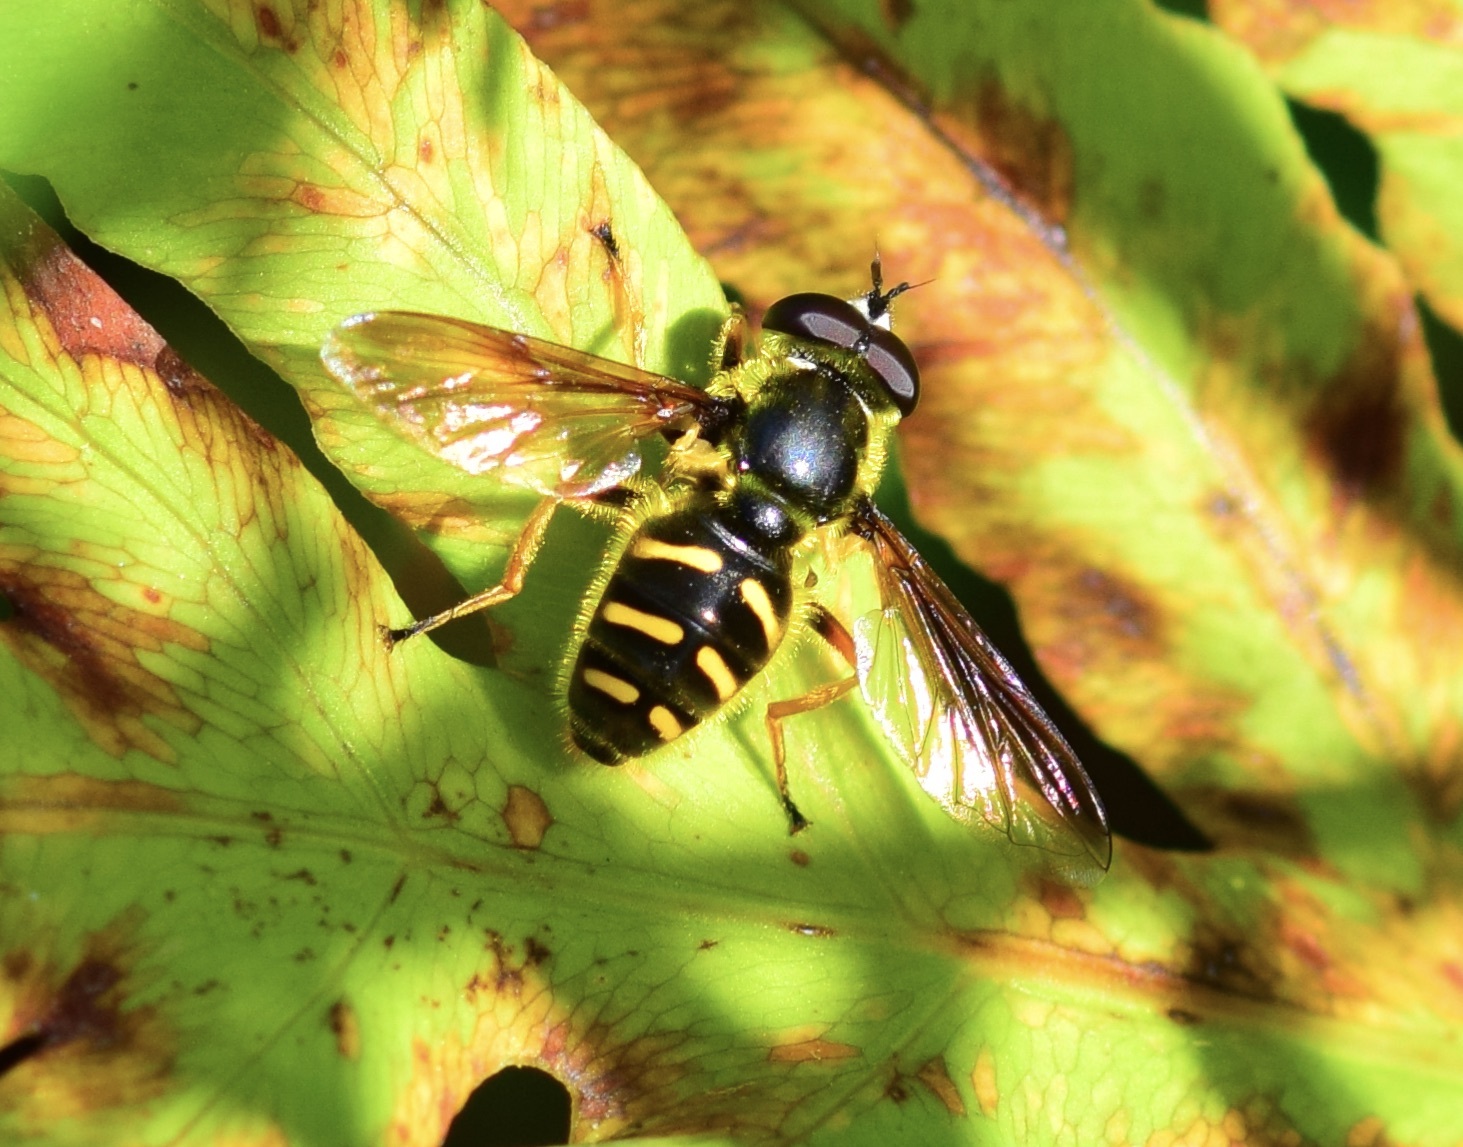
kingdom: Animalia
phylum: Arthropoda
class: Insecta
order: Diptera
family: Syrphidae
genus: Sericomyia
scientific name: Sericomyia chrysotoxoides
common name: Oblique-banded pond fly
